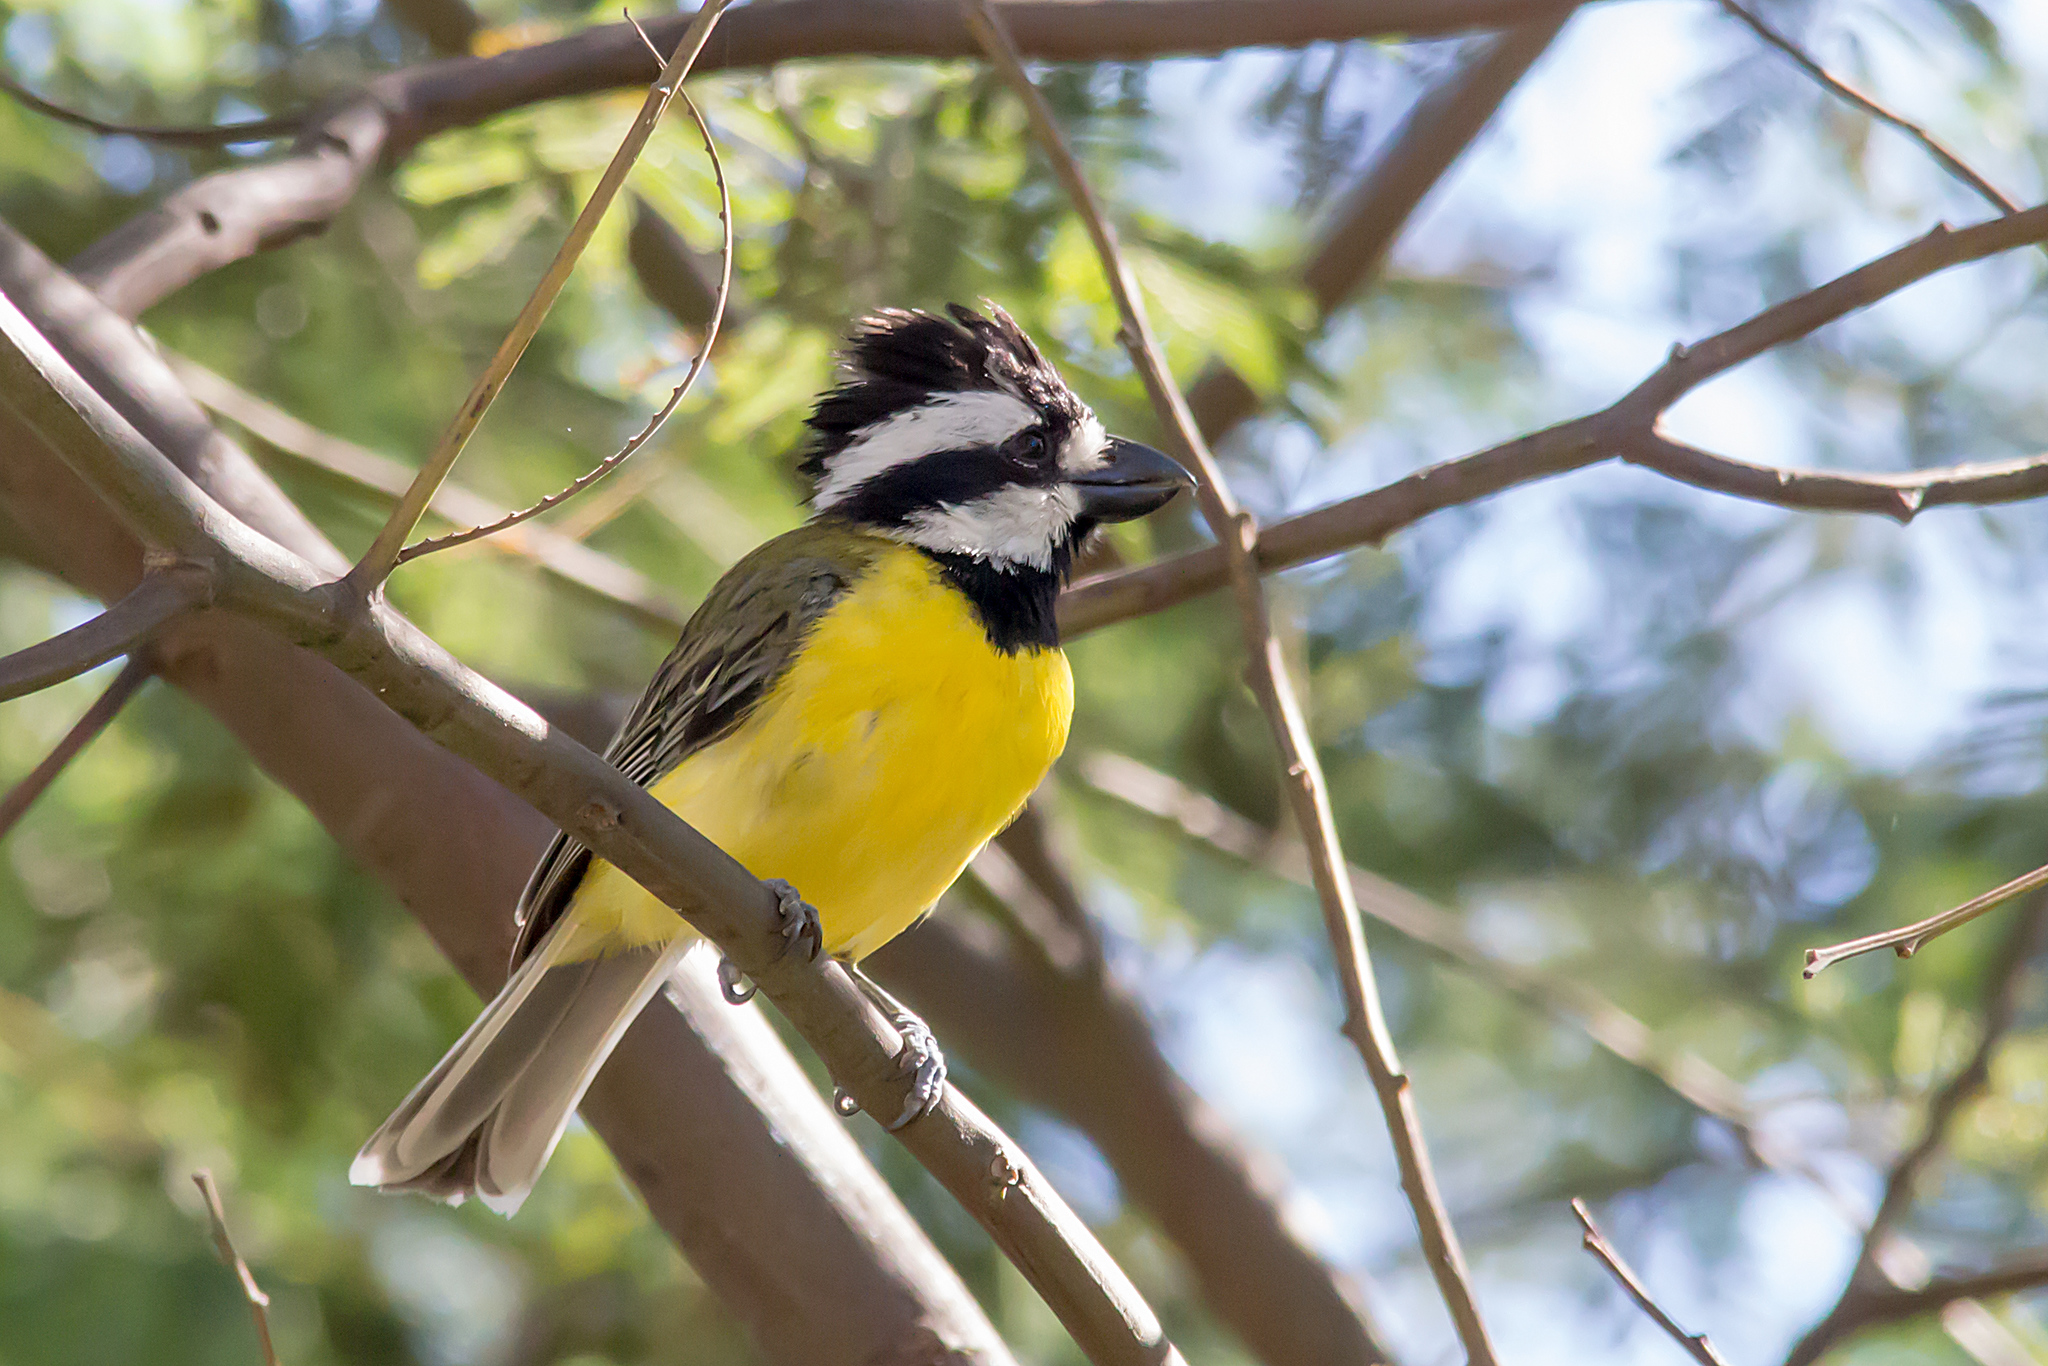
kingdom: Animalia
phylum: Chordata
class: Aves
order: Passeriformes
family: Pachycephalidae
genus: Falcunculus
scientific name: Falcunculus frontatus
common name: Crested shriketit
